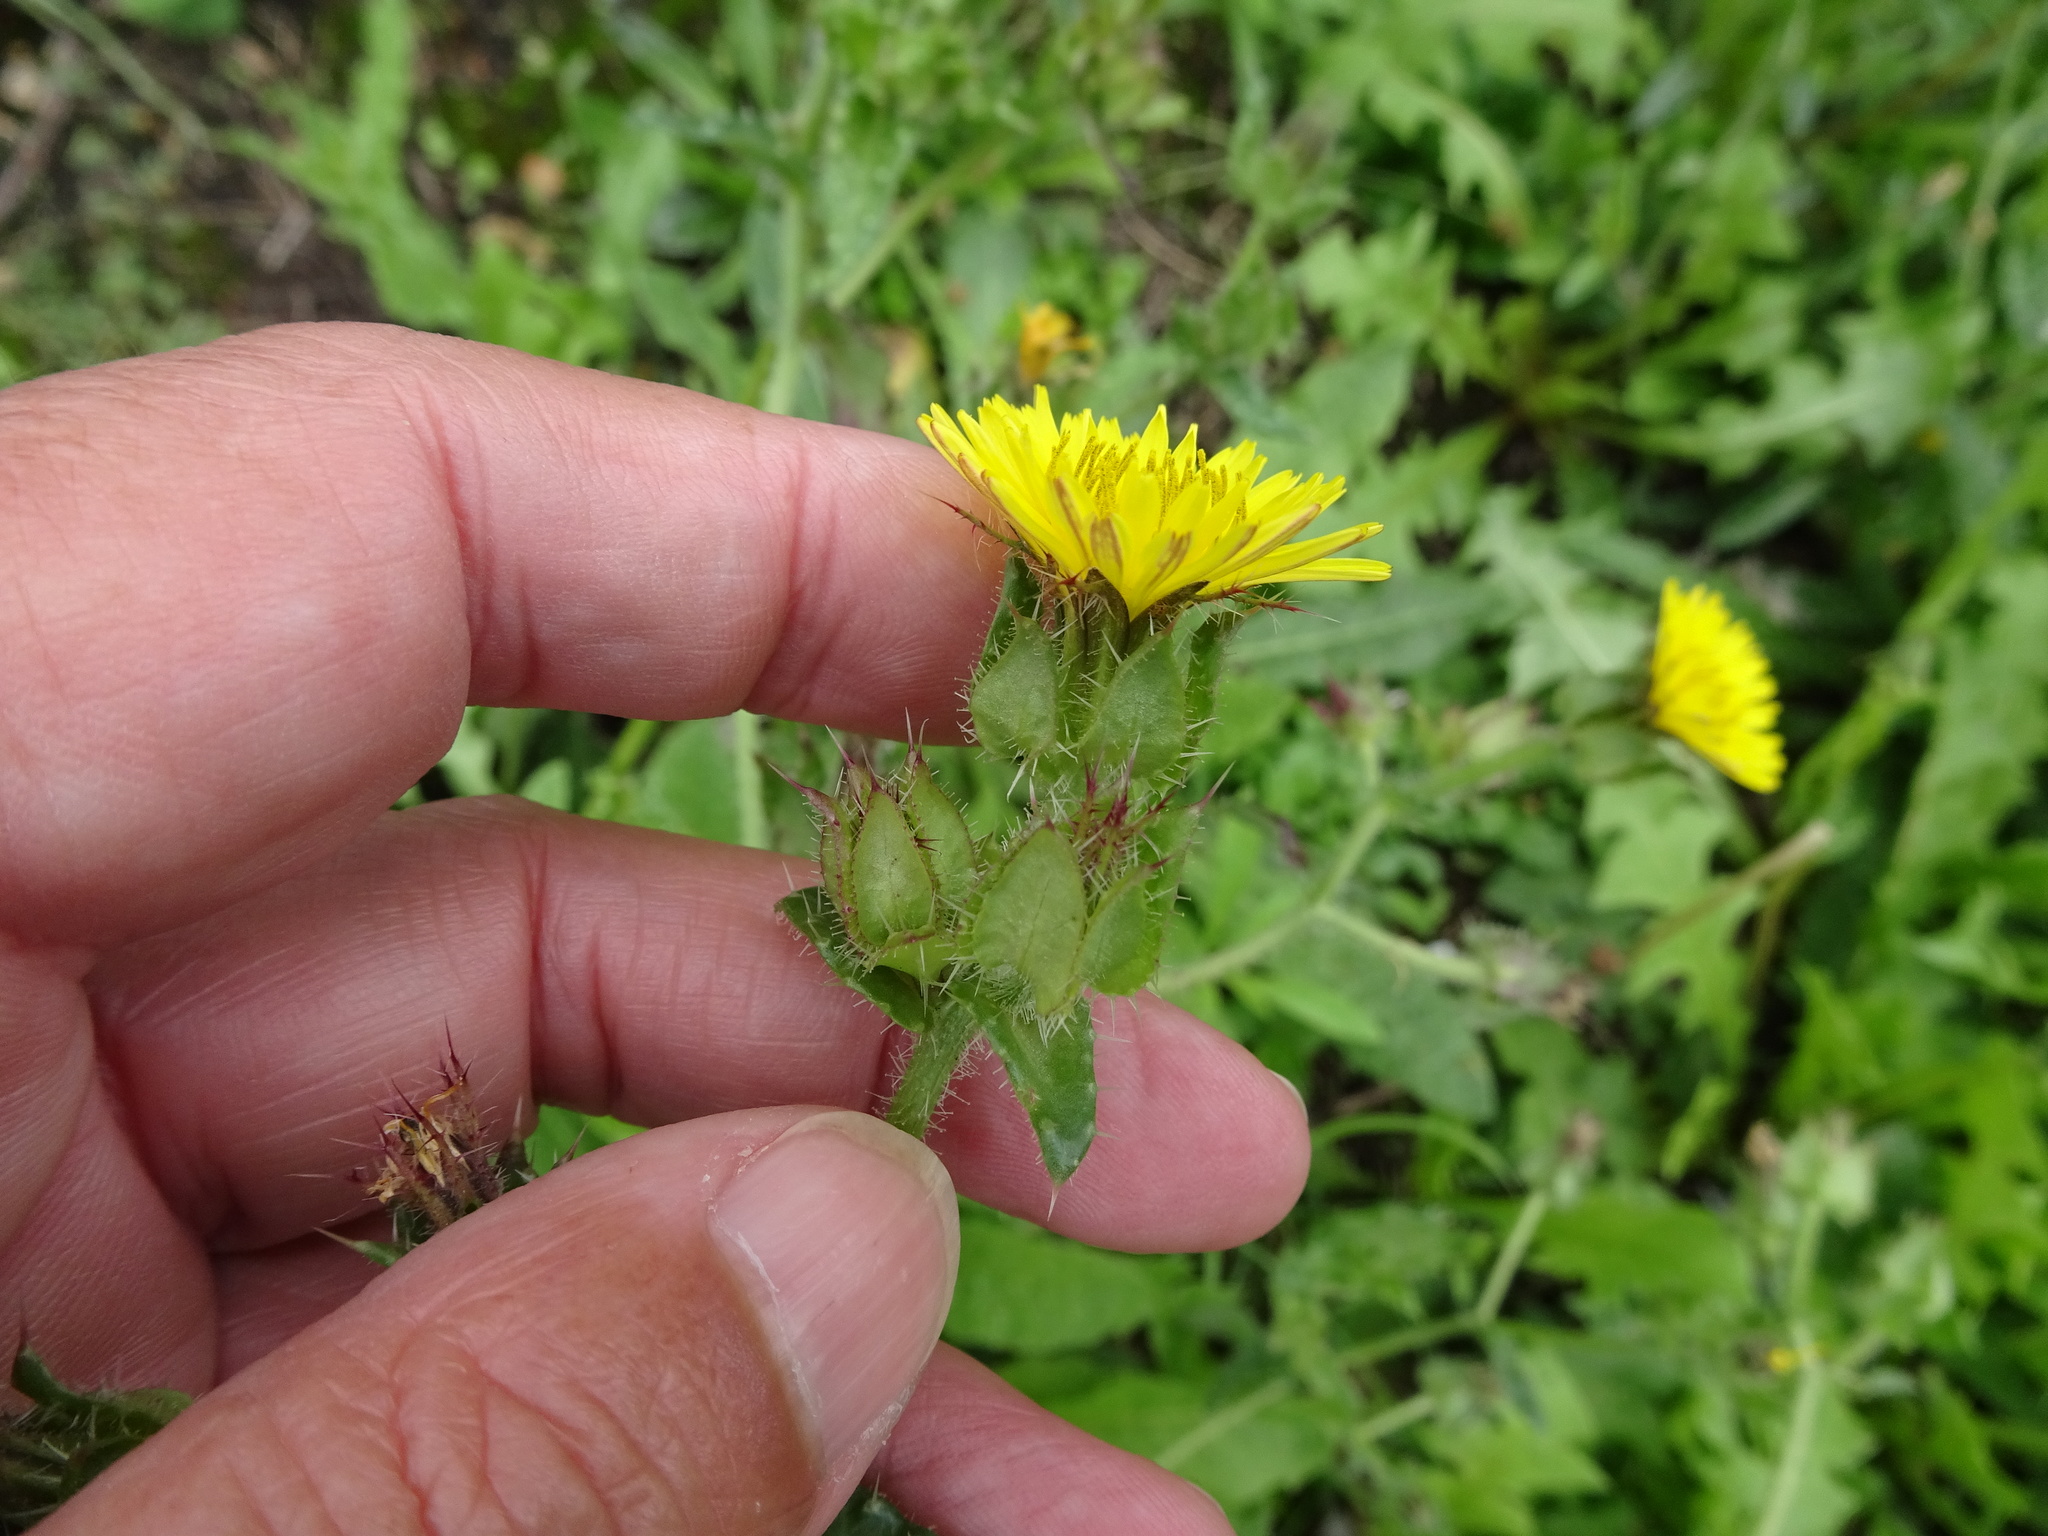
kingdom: Plantae
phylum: Tracheophyta
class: Magnoliopsida
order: Asterales
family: Asteraceae
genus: Helminthotheca
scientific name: Helminthotheca echioides
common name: Ox-tongue
